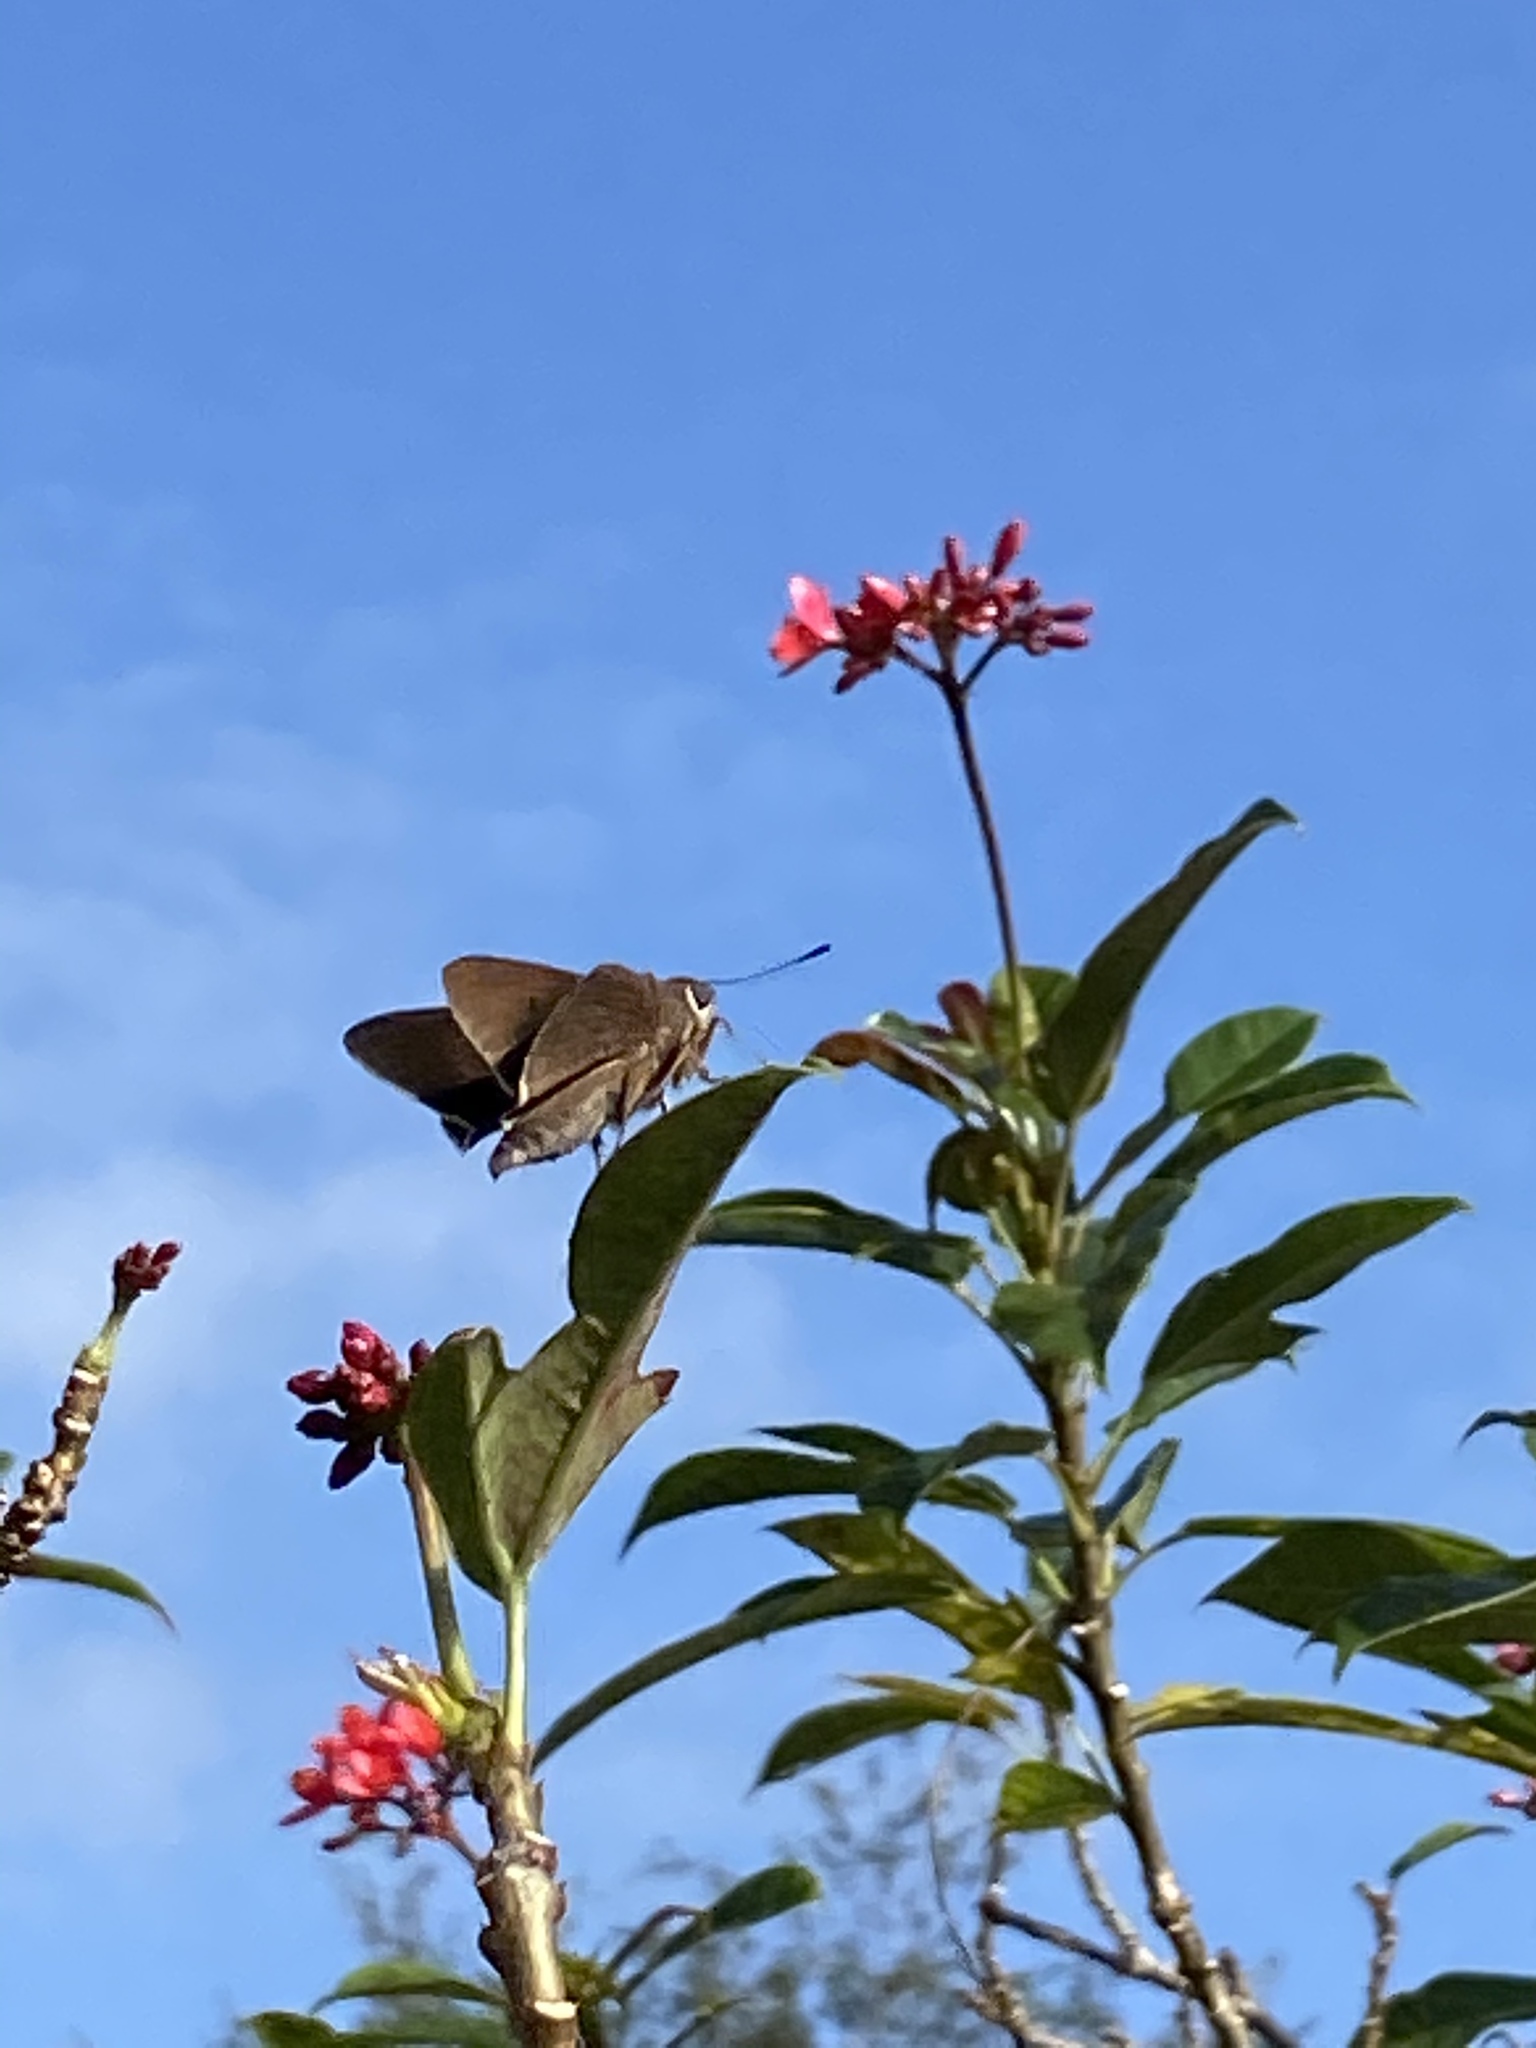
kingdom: Animalia
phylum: Arthropoda
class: Insecta
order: Lepidoptera
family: Hesperiidae
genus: Asbolis
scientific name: Asbolis capucinus
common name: Monk skipper
